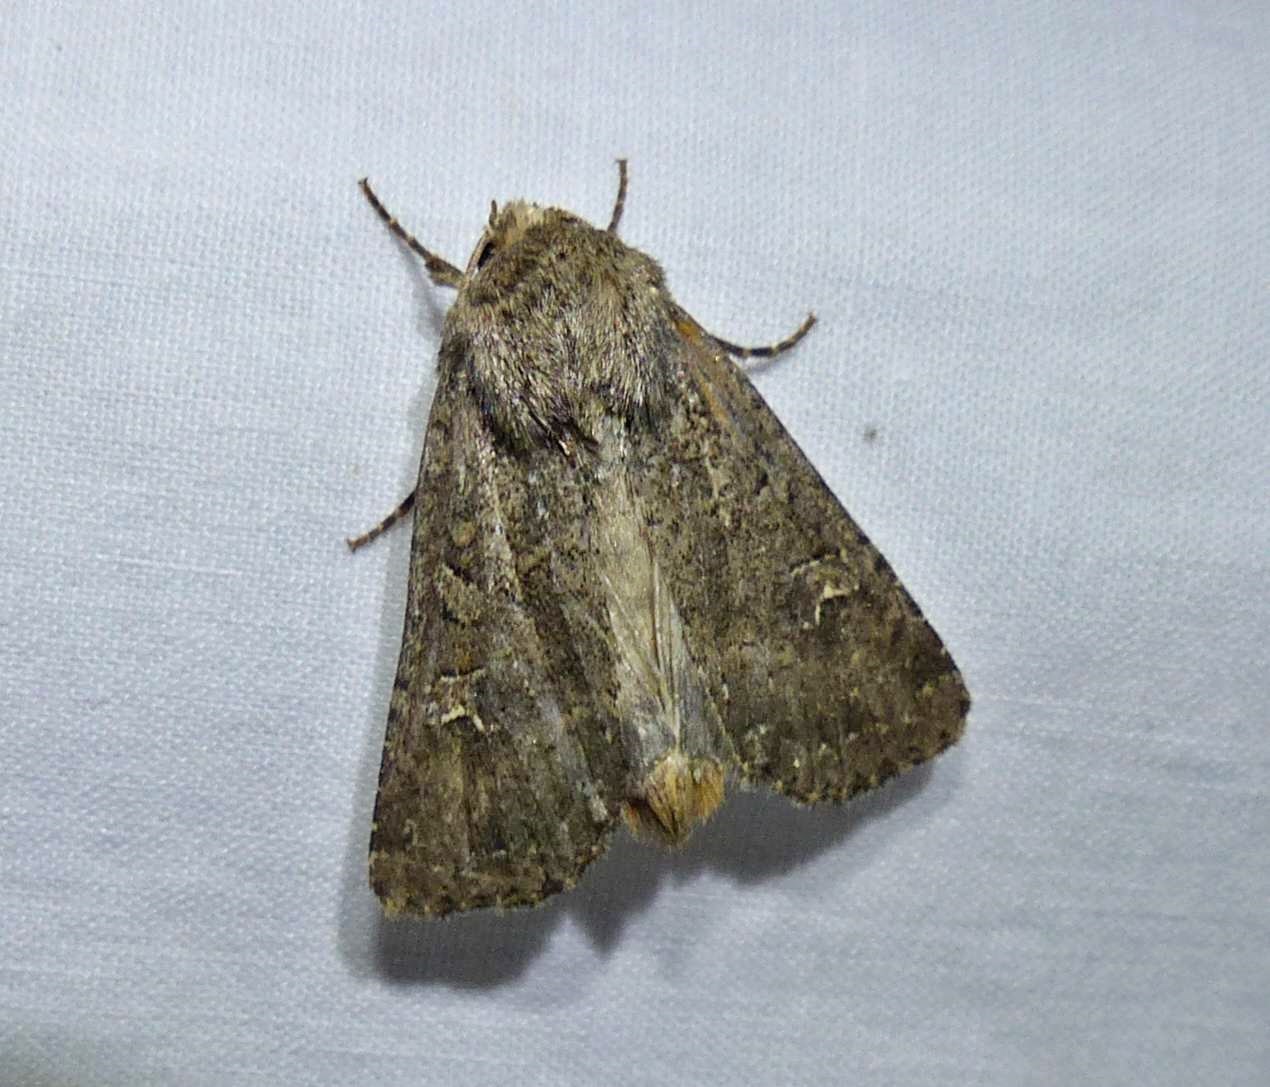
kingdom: Animalia
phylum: Arthropoda
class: Insecta
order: Lepidoptera
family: Noctuidae
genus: Apamea
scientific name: Apamea devastator
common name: Glassy cutworm
